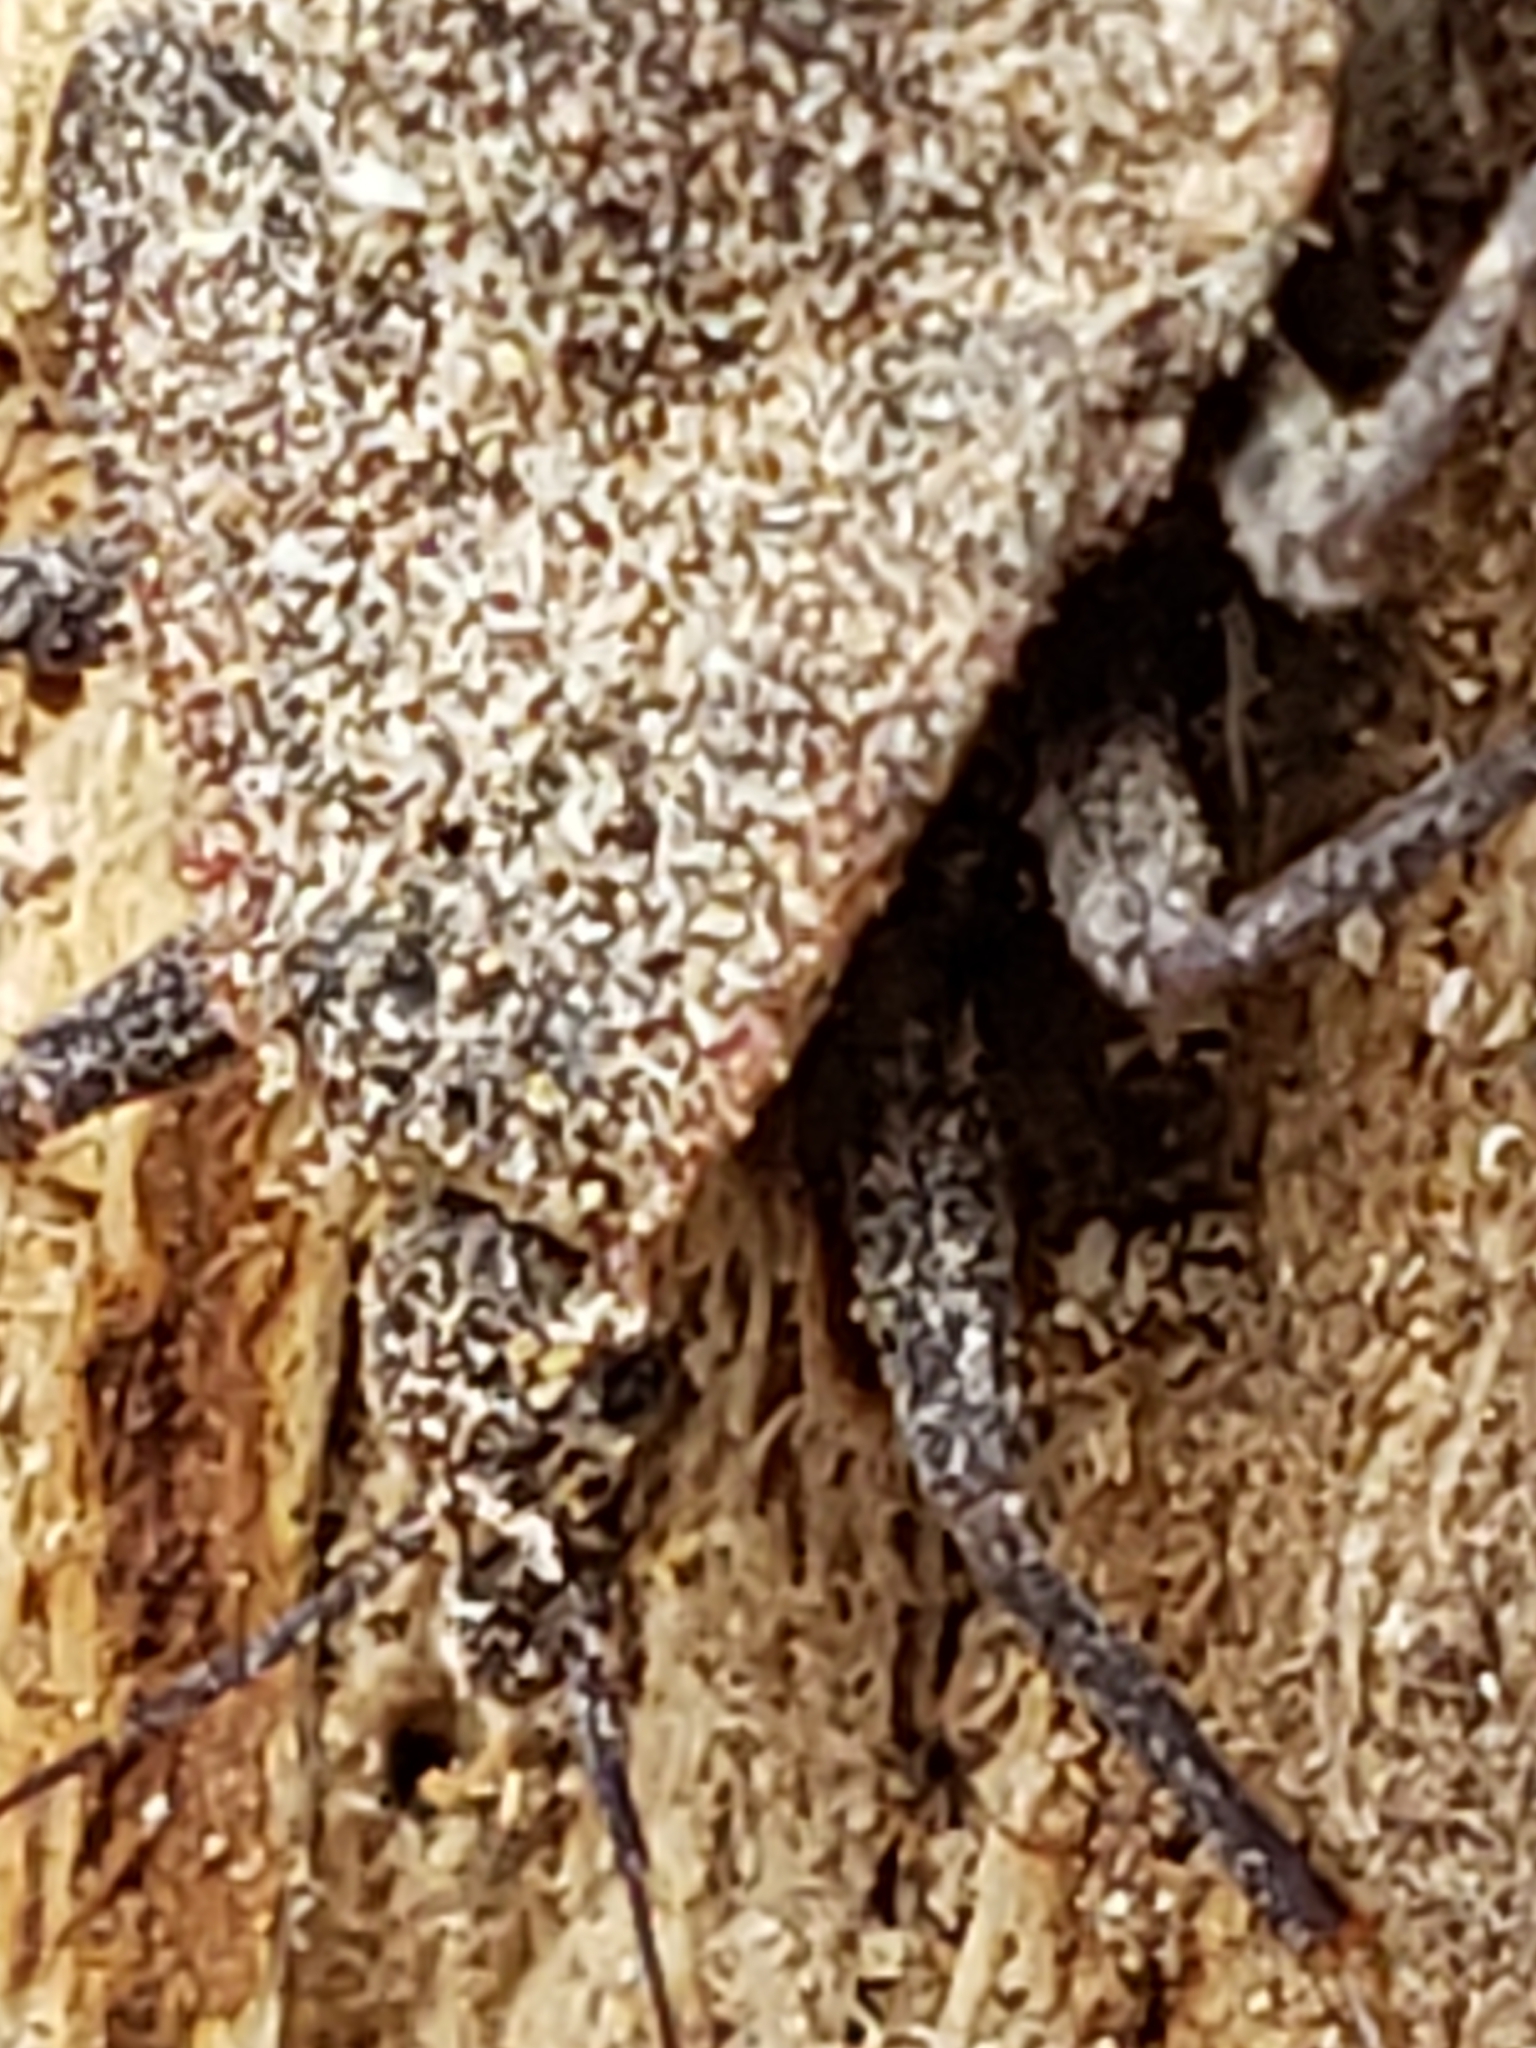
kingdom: Animalia
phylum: Arthropoda
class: Insecta
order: Hemiptera
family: Reduviidae
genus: Triatoma
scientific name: Triatoma sanguisuga
